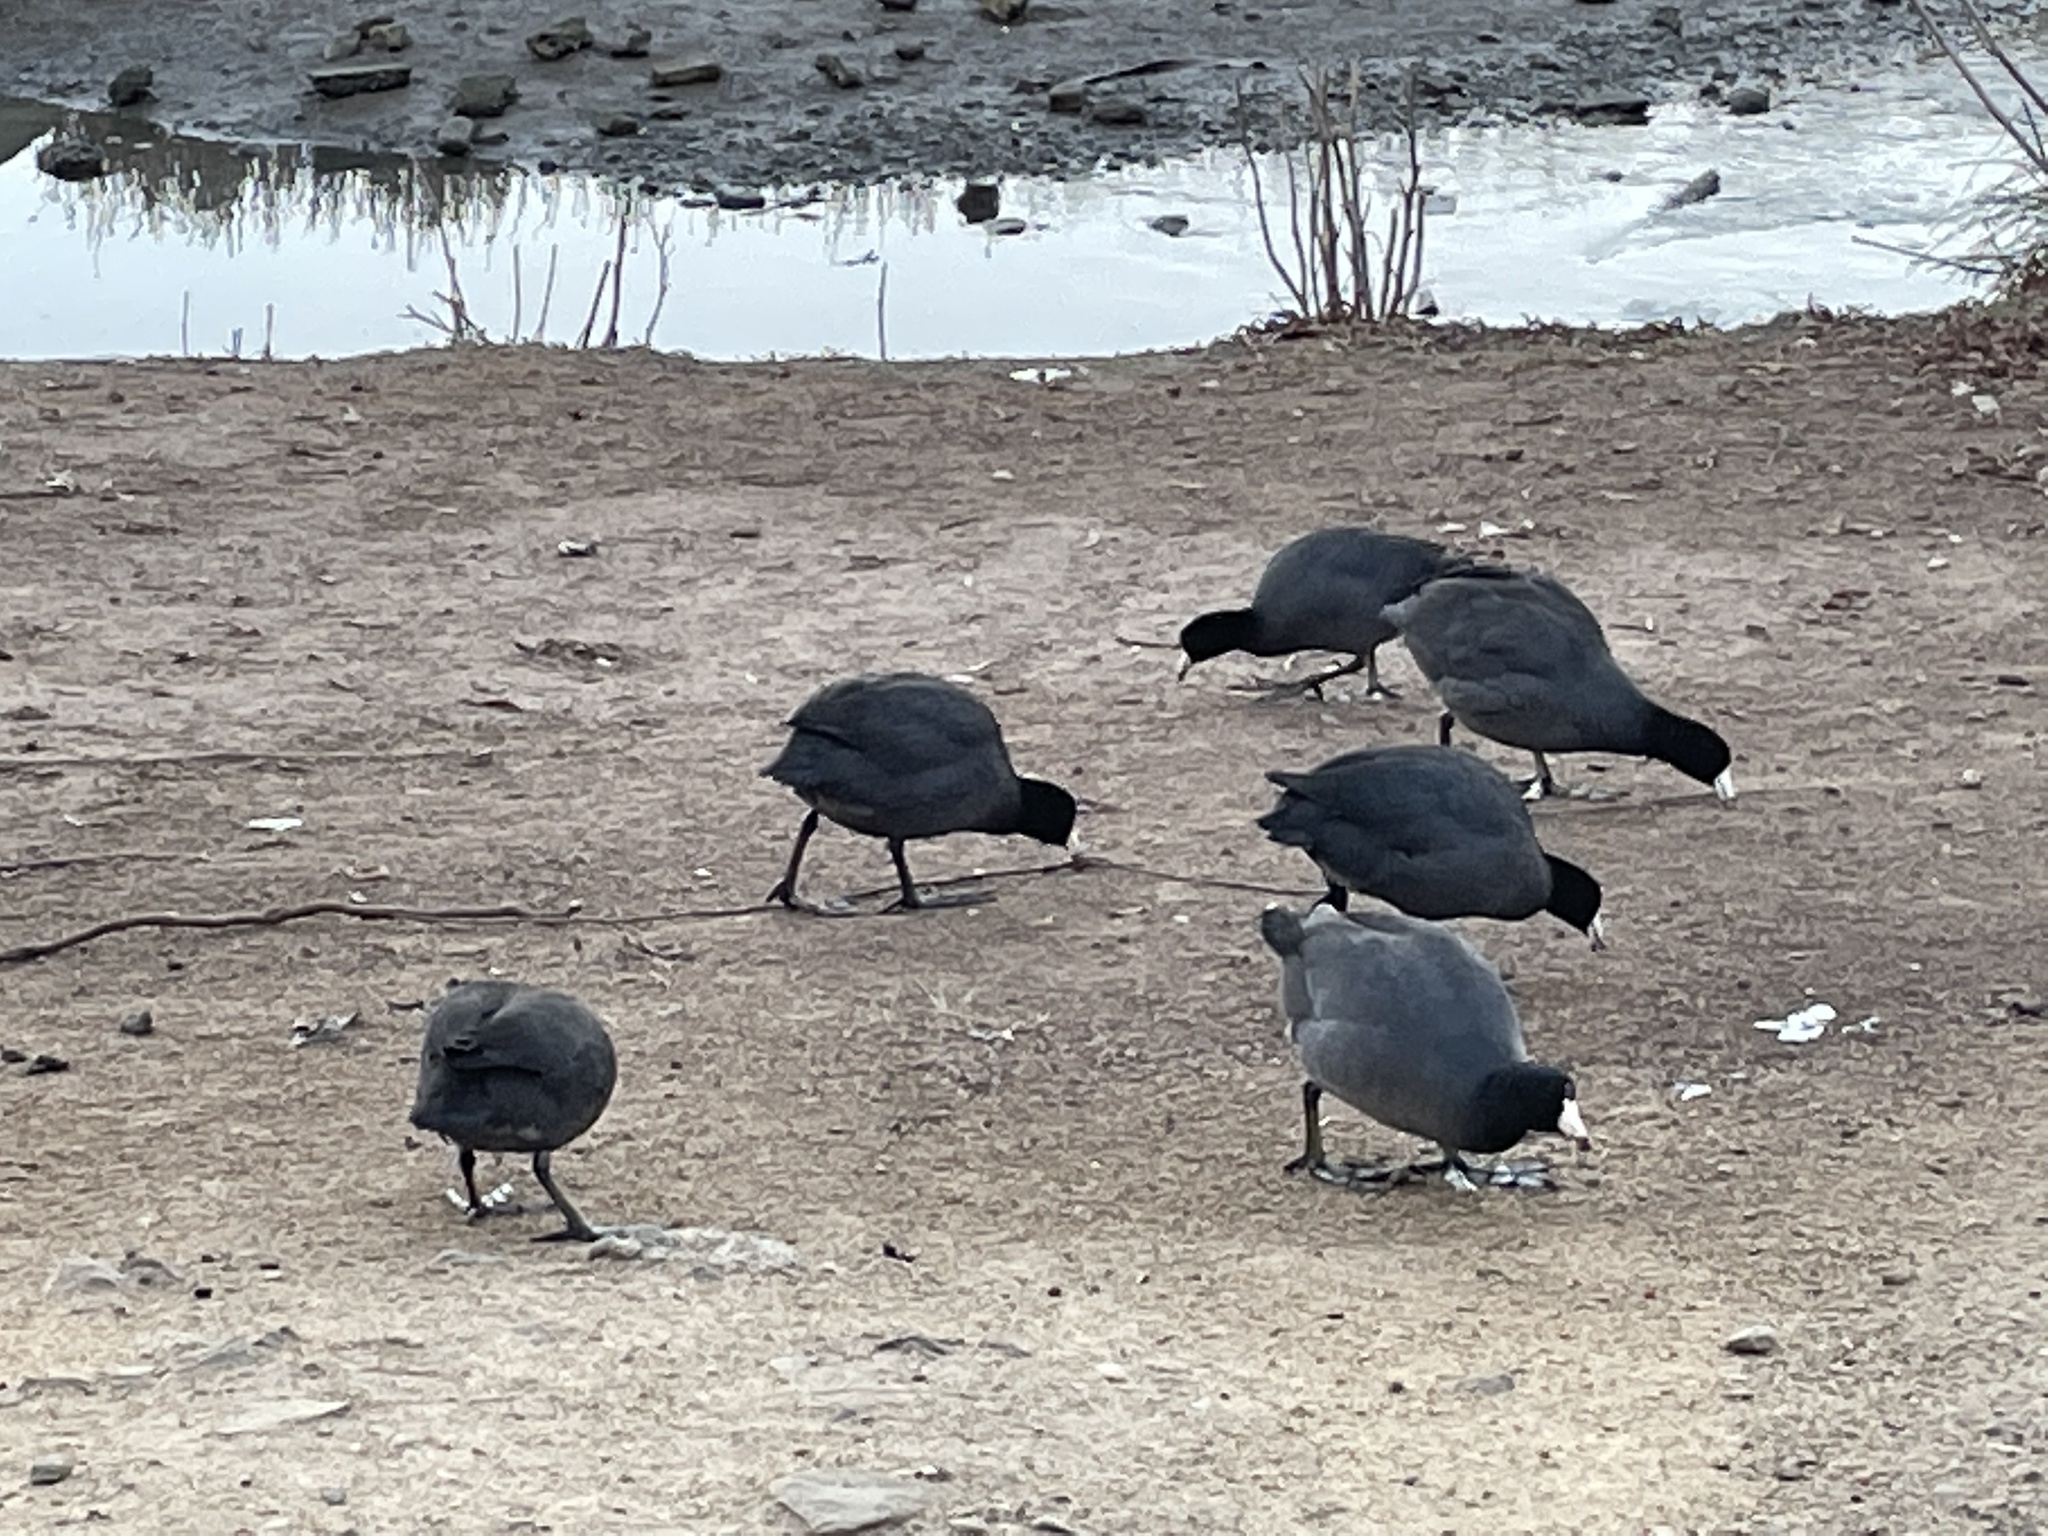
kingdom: Animalia
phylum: Chordata
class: Aves
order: Gruiformes
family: Rallidae
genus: Fulica
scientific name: Fulica americana
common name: American coot
